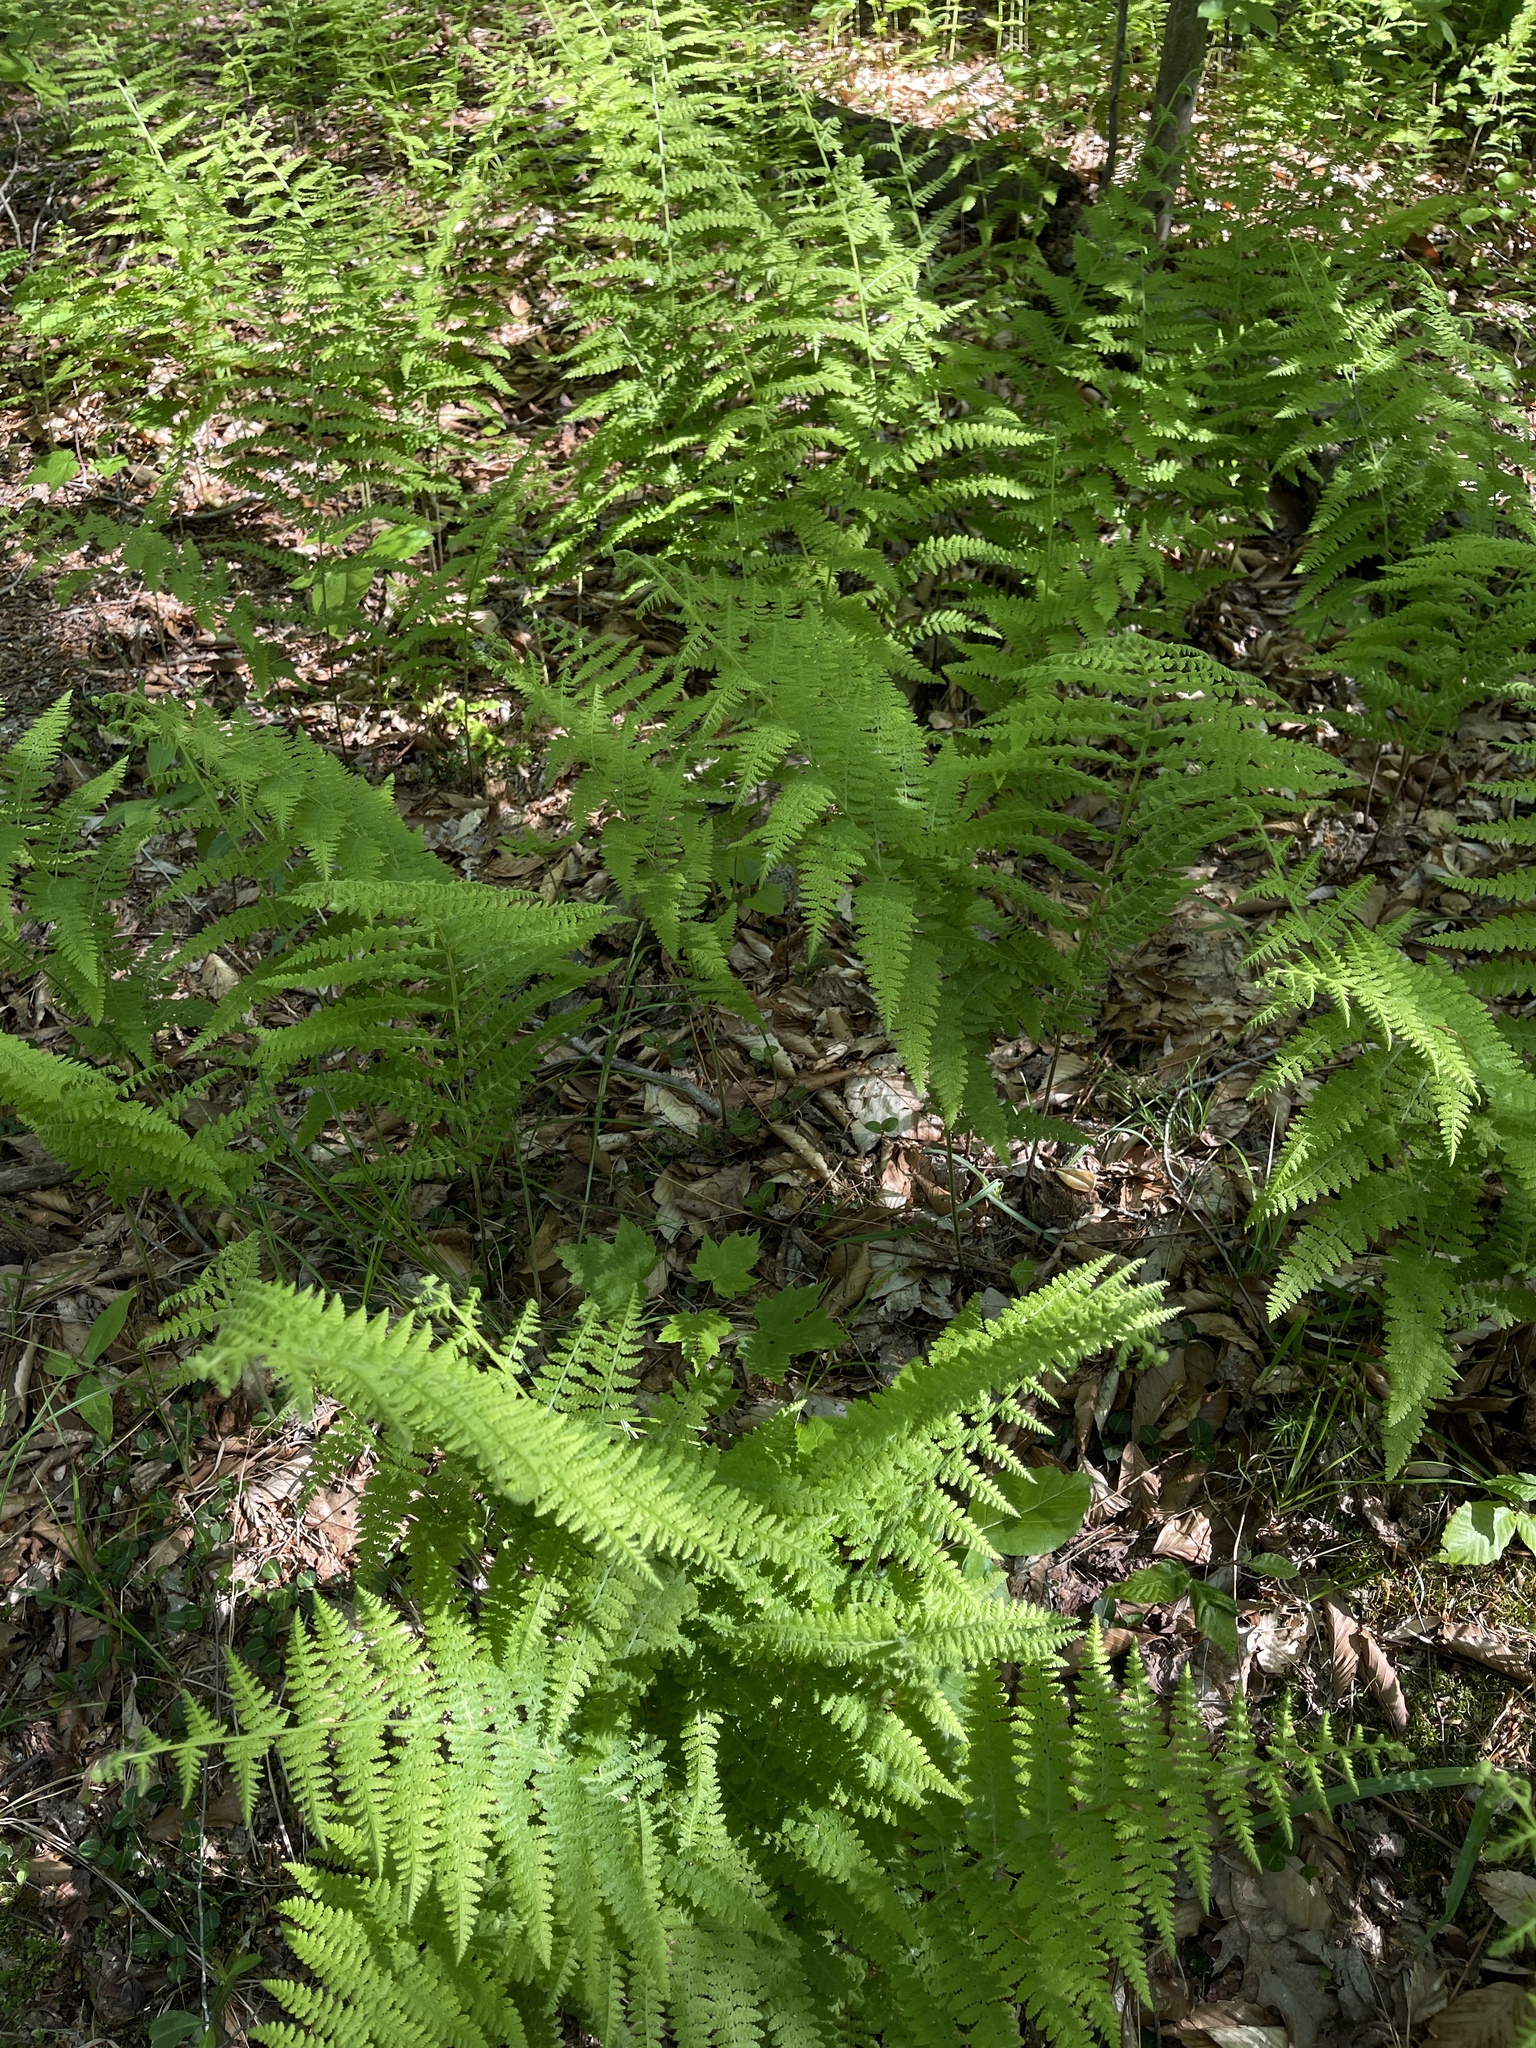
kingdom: Plantae
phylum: Tracheophyta
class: Polypodiopsida
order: Polypodiales
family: Dennstaedtiaceae
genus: Sitobolium
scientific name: Sitobolium punctilobum
